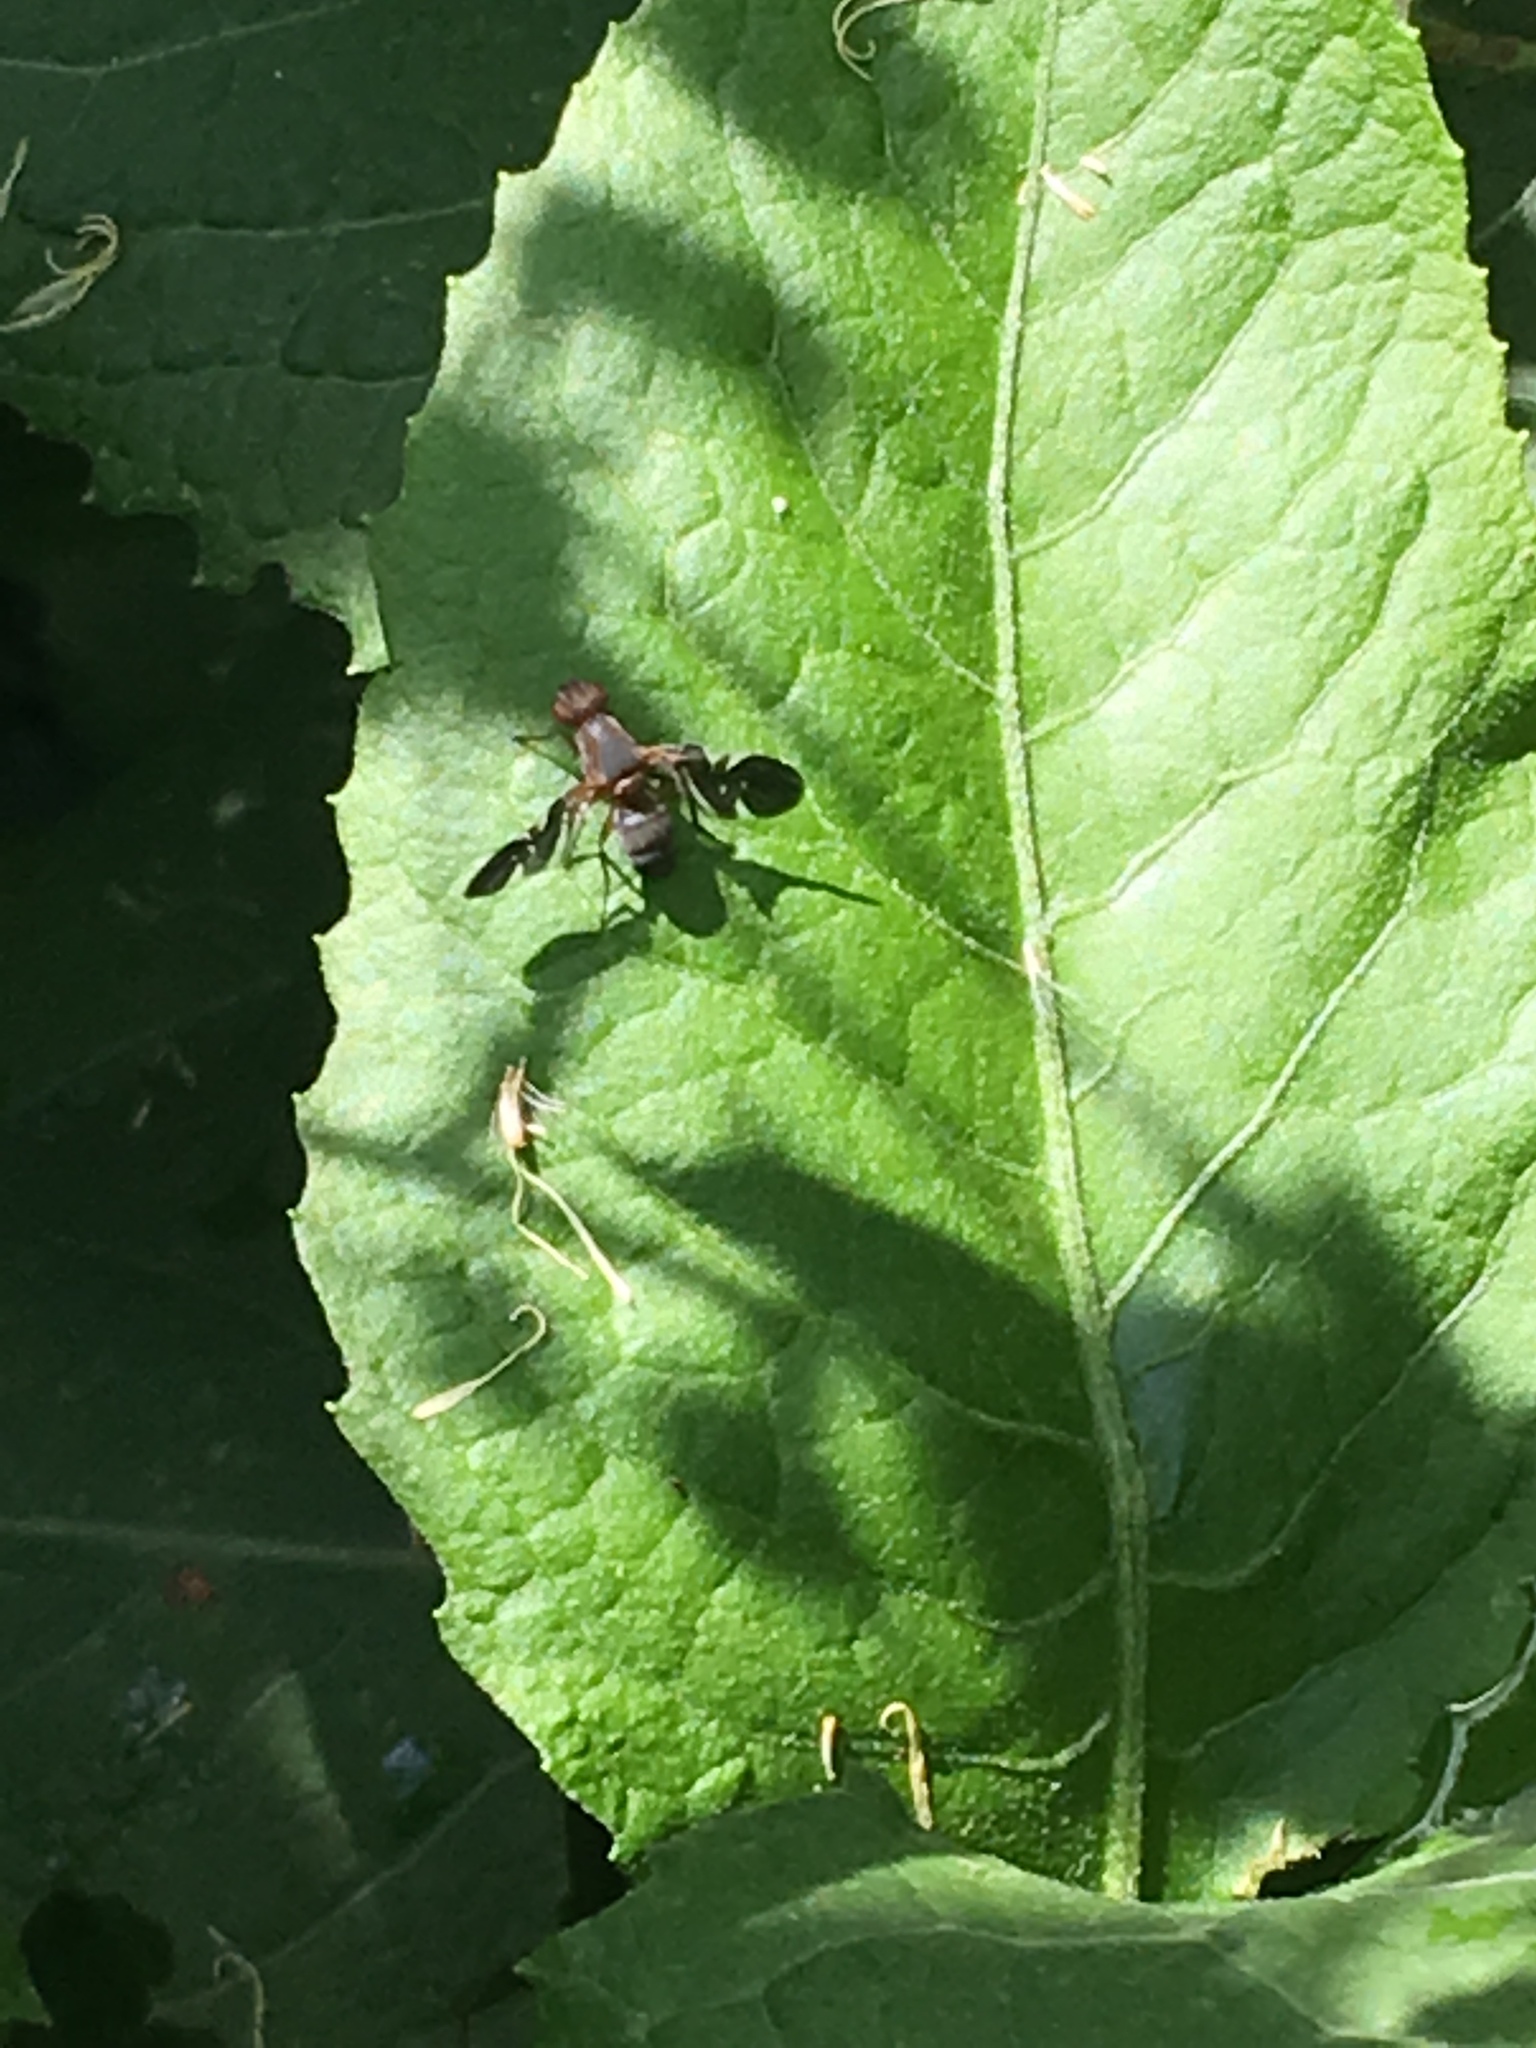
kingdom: Animalia
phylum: Arthropoda
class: Insecta
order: Diptera
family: Ulidiidae
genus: Delphinia
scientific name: Delphinia picta
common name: Common picture-winged fly
